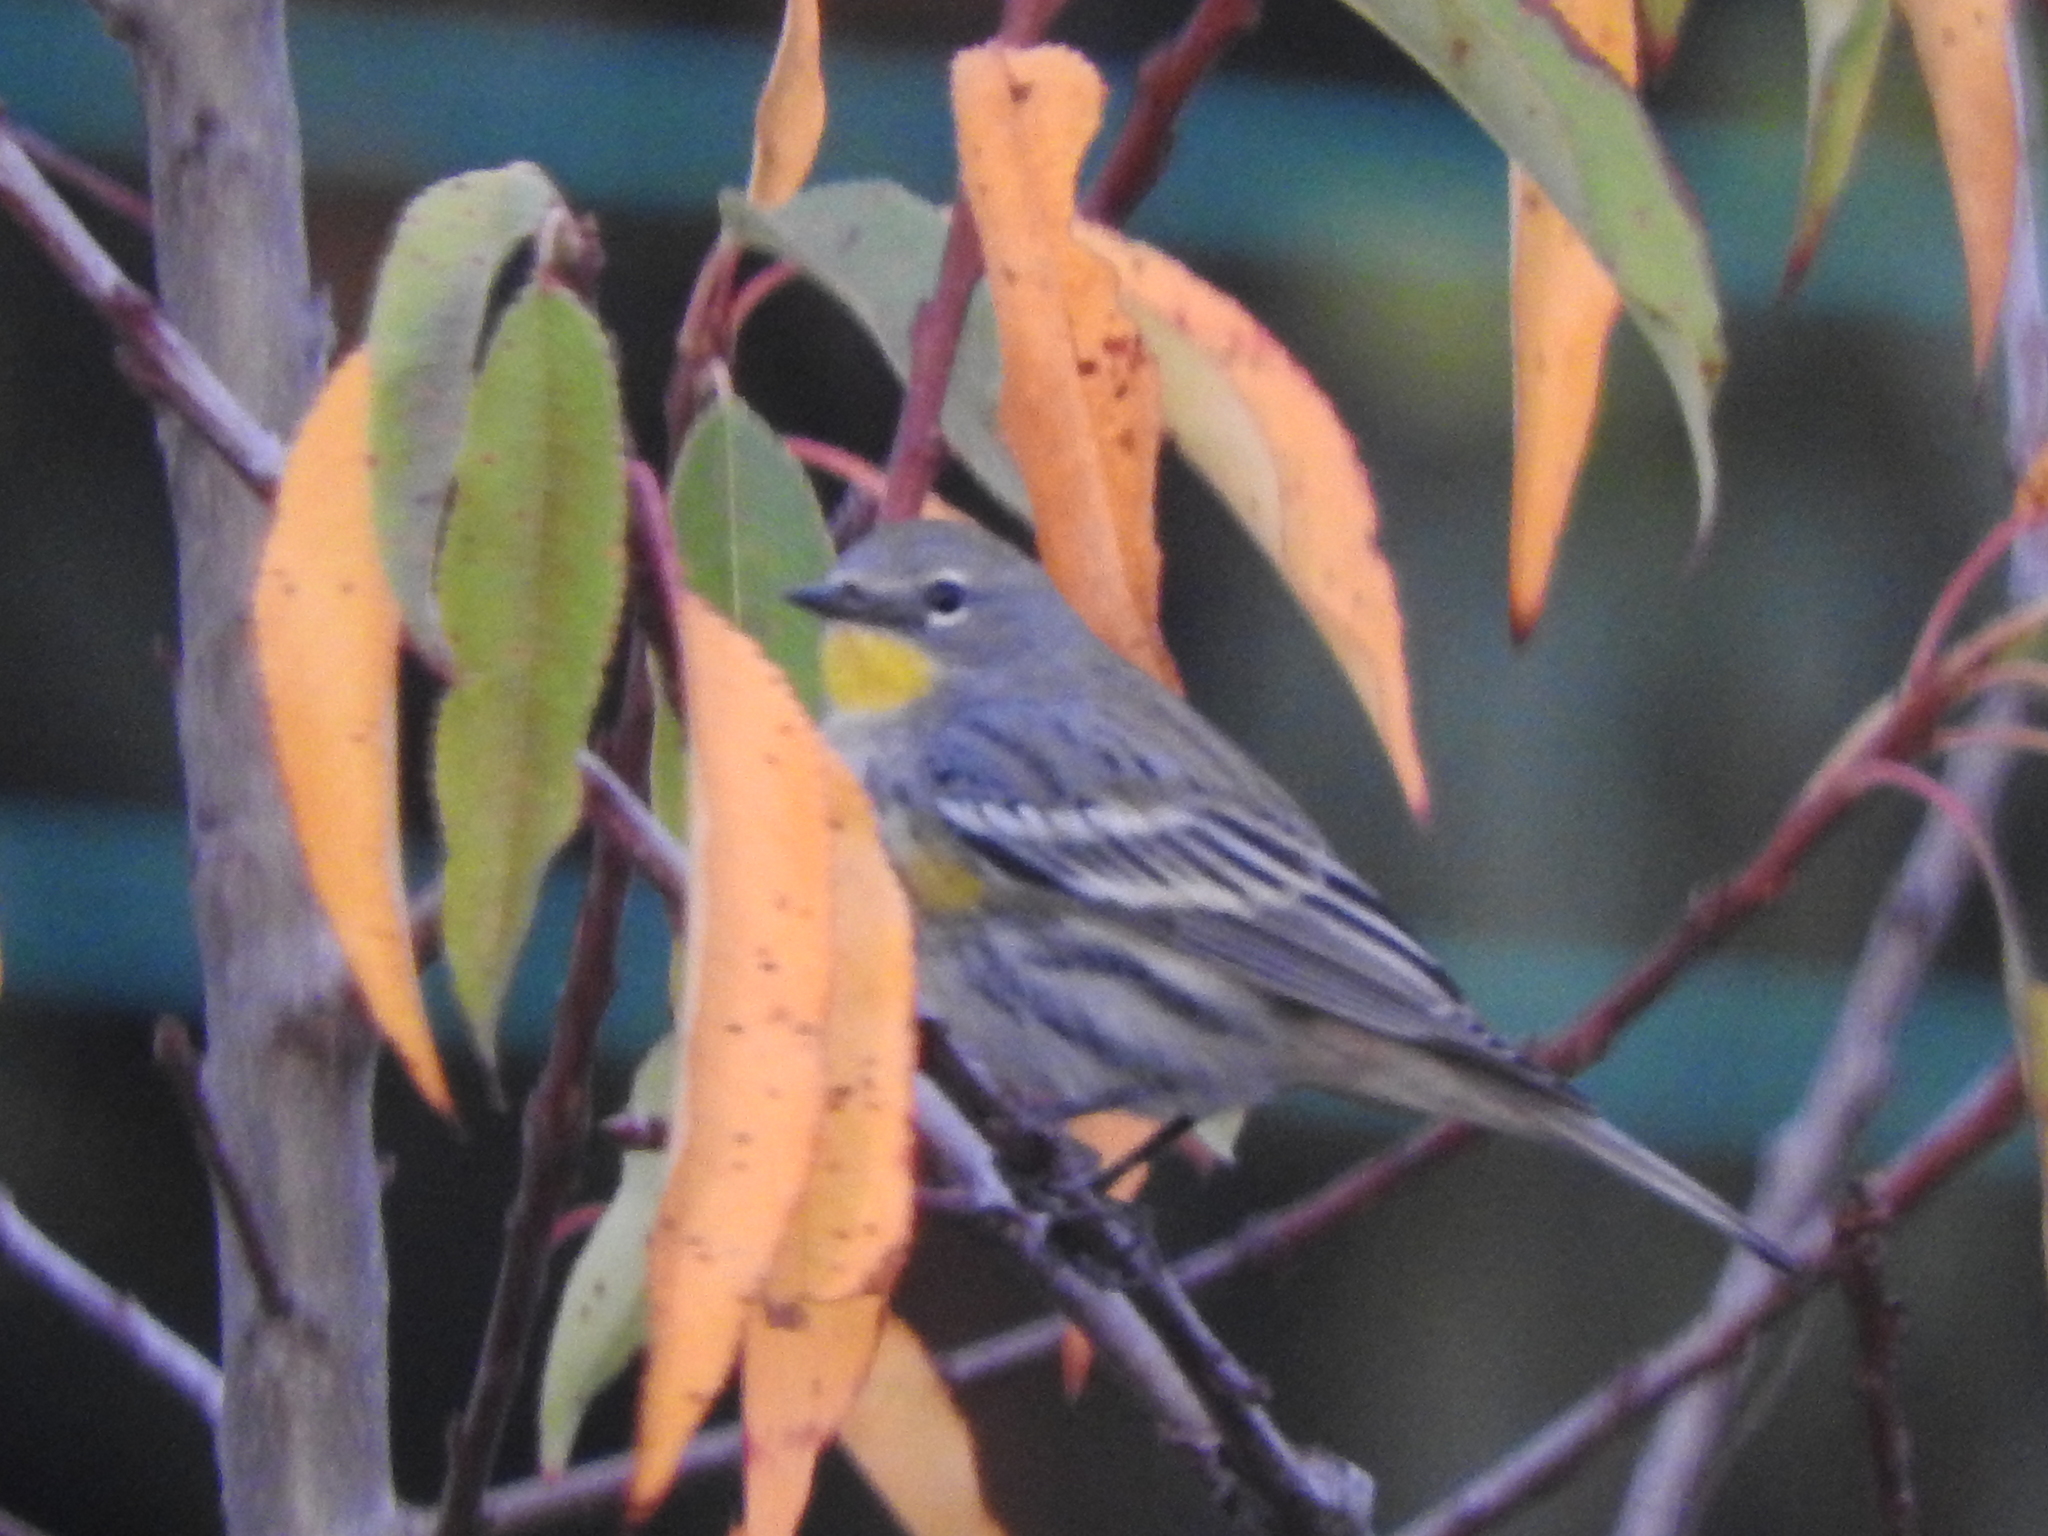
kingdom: Animalia
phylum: Chordata
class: Aves
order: Passeriformes
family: Parulidae
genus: Setophaga
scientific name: Setophaga coronata
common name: Myrtle warbler
